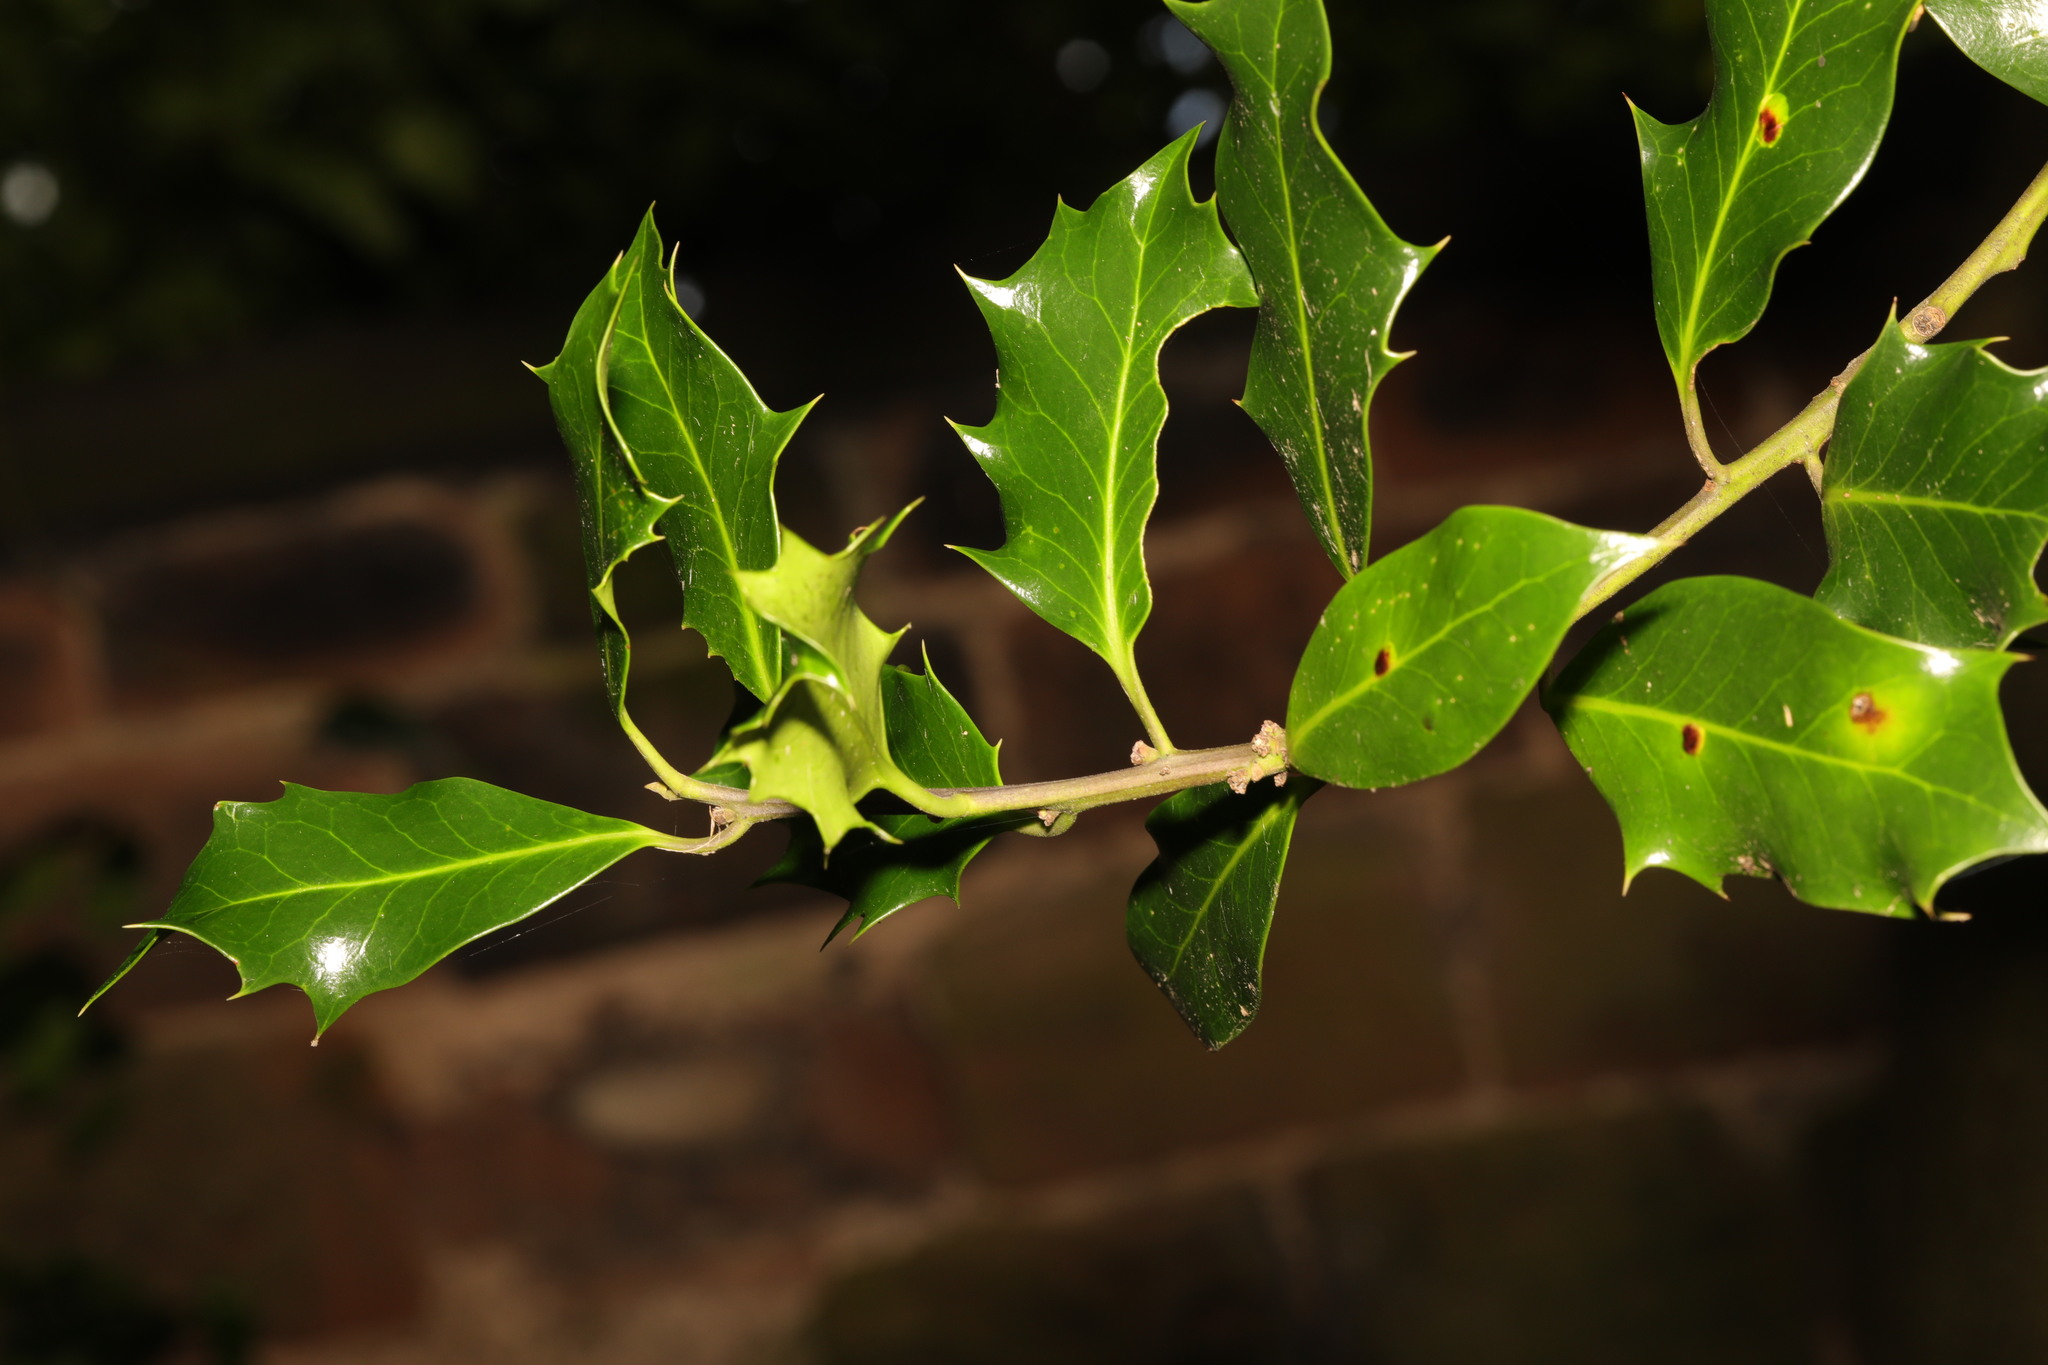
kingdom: Plantae
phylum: Tracheophyta
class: Magnoliopsida
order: Aquifoliales
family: Aquifoliaceae
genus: Ilex
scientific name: Ilex aquifolium
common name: English holly
